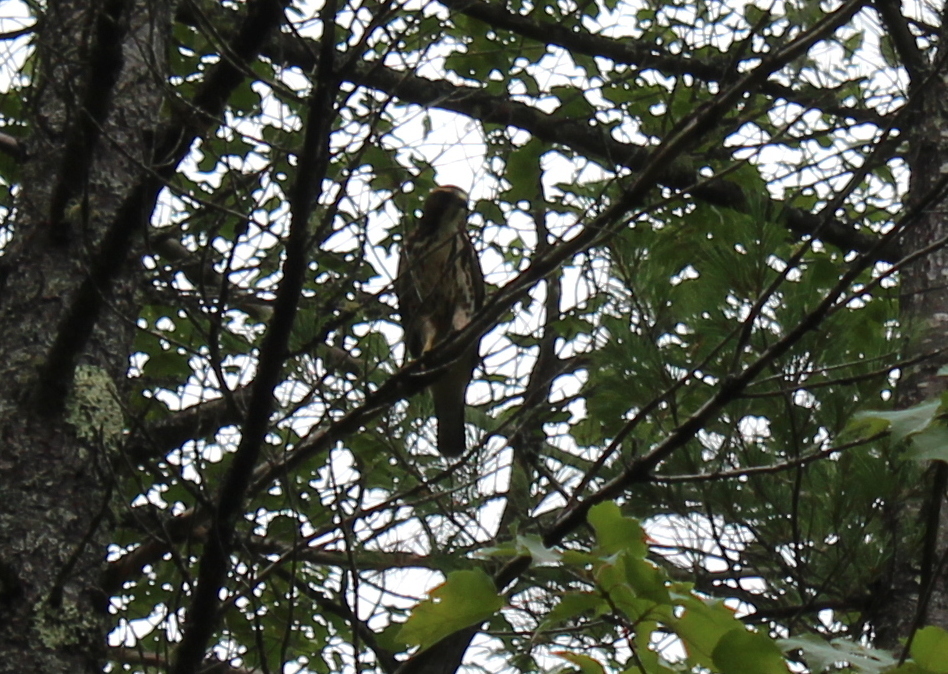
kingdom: Animalia
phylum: Chordata
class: Aves
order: Accipitriformes
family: Accipitridae
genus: Buteo
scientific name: Buteo platypterus
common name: Broad-winged hawk
